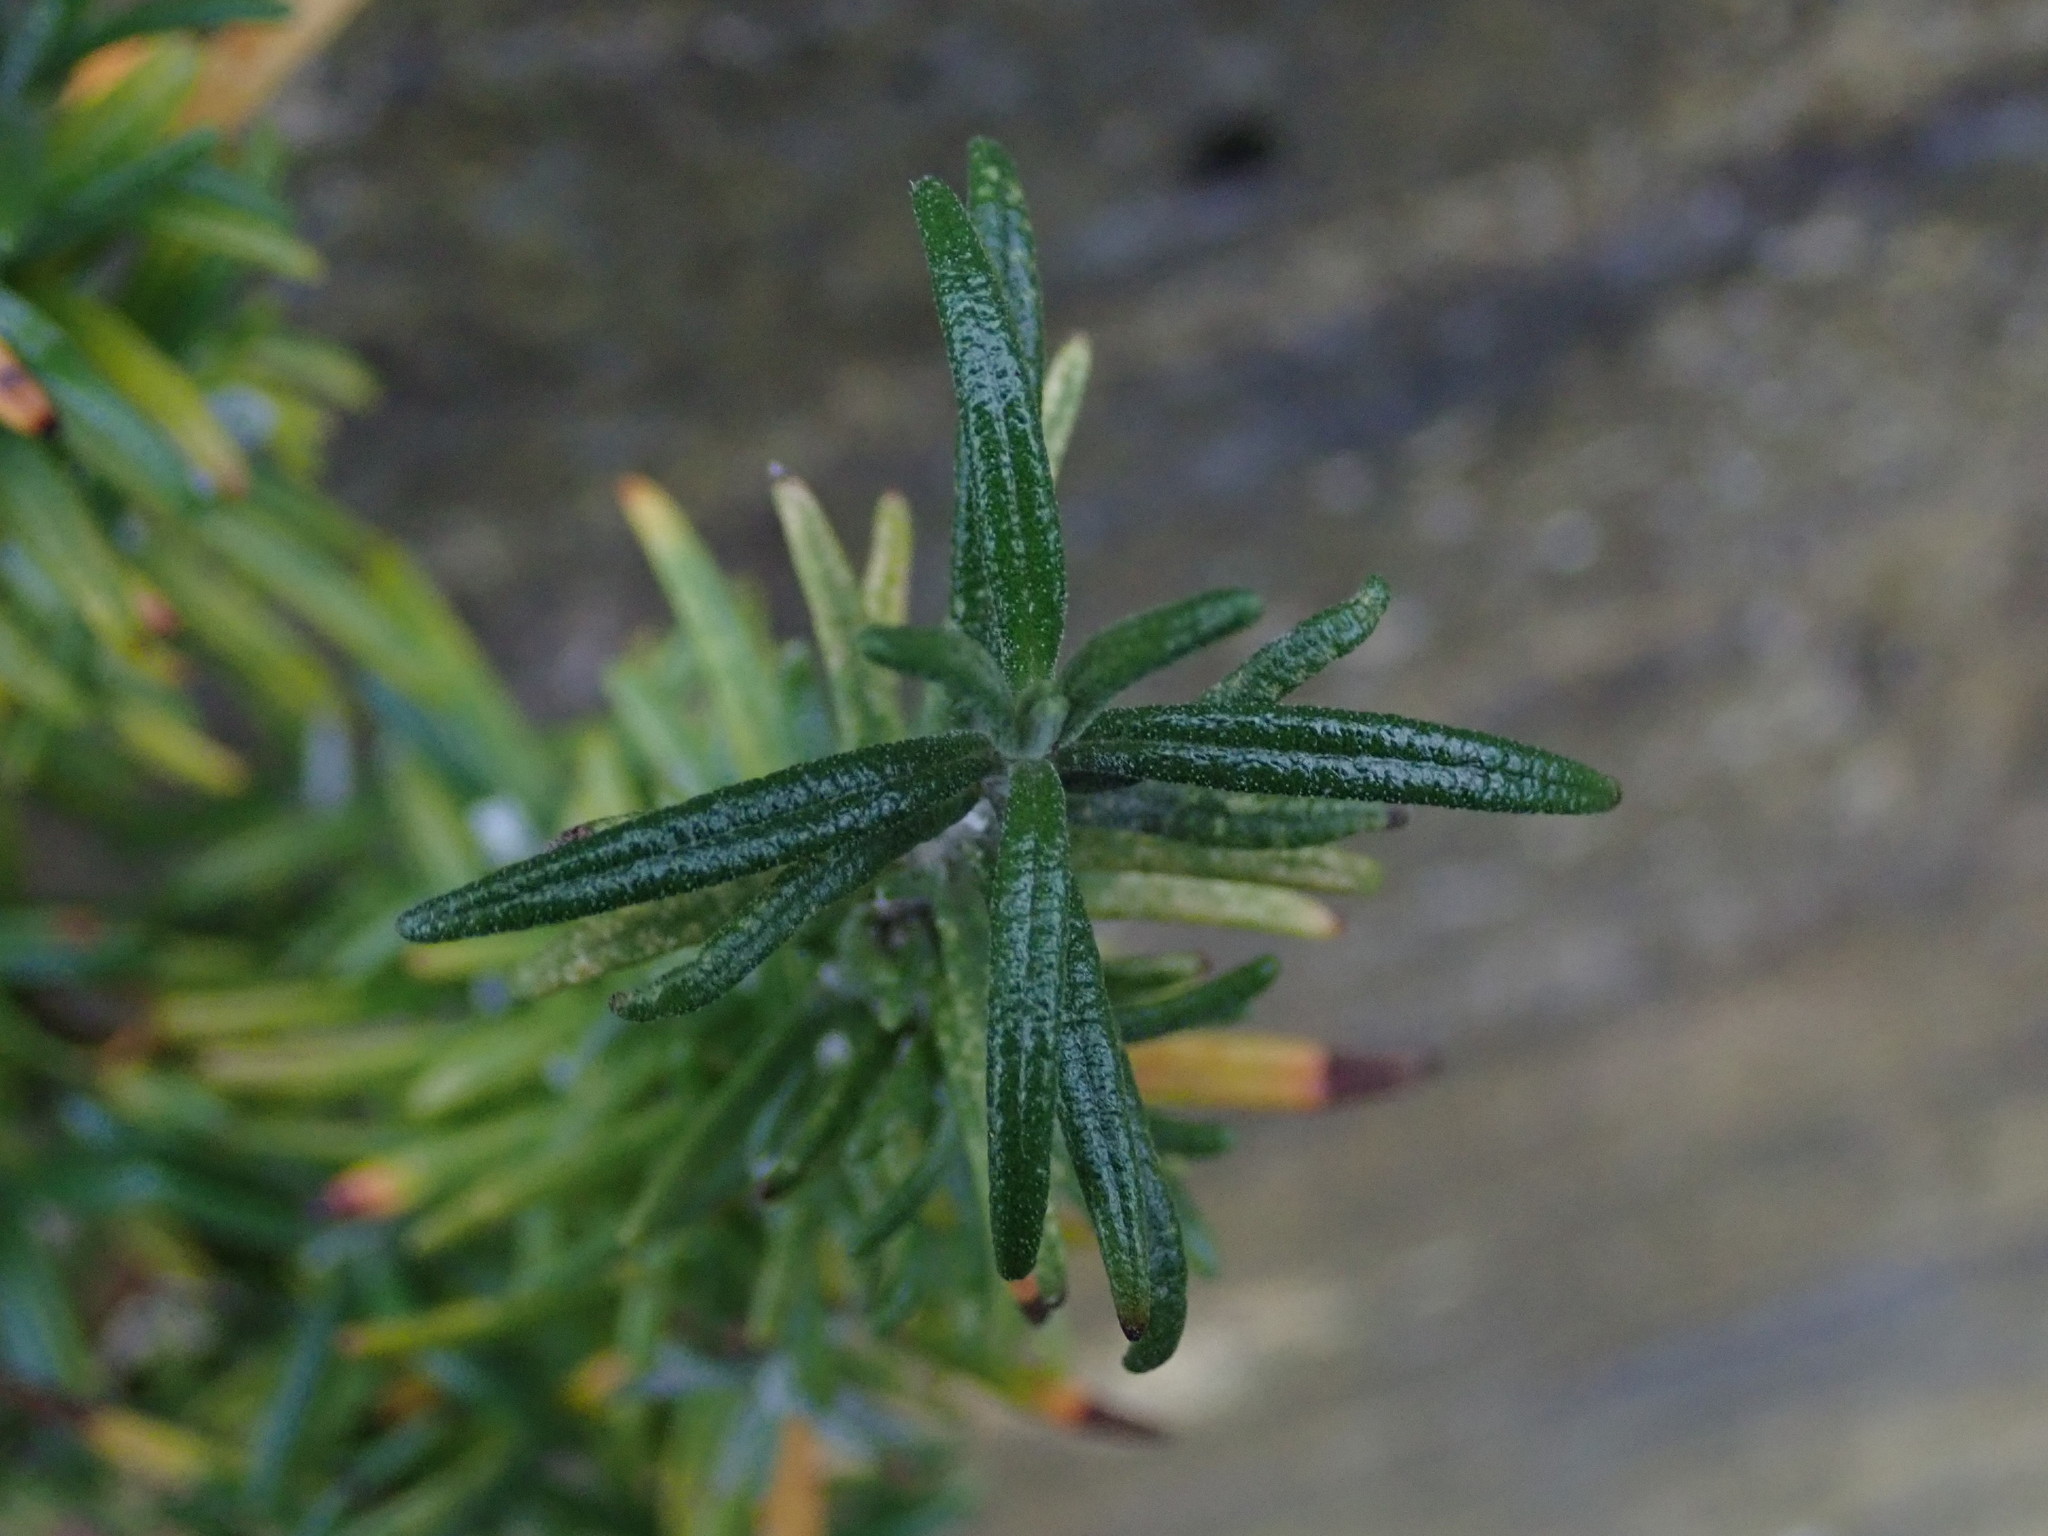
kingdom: Plantae
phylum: Tracheophyta
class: Magnoliopsida
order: Lamiales
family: Lamiaceae
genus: Salvia
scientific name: Salvia rosmarinus
